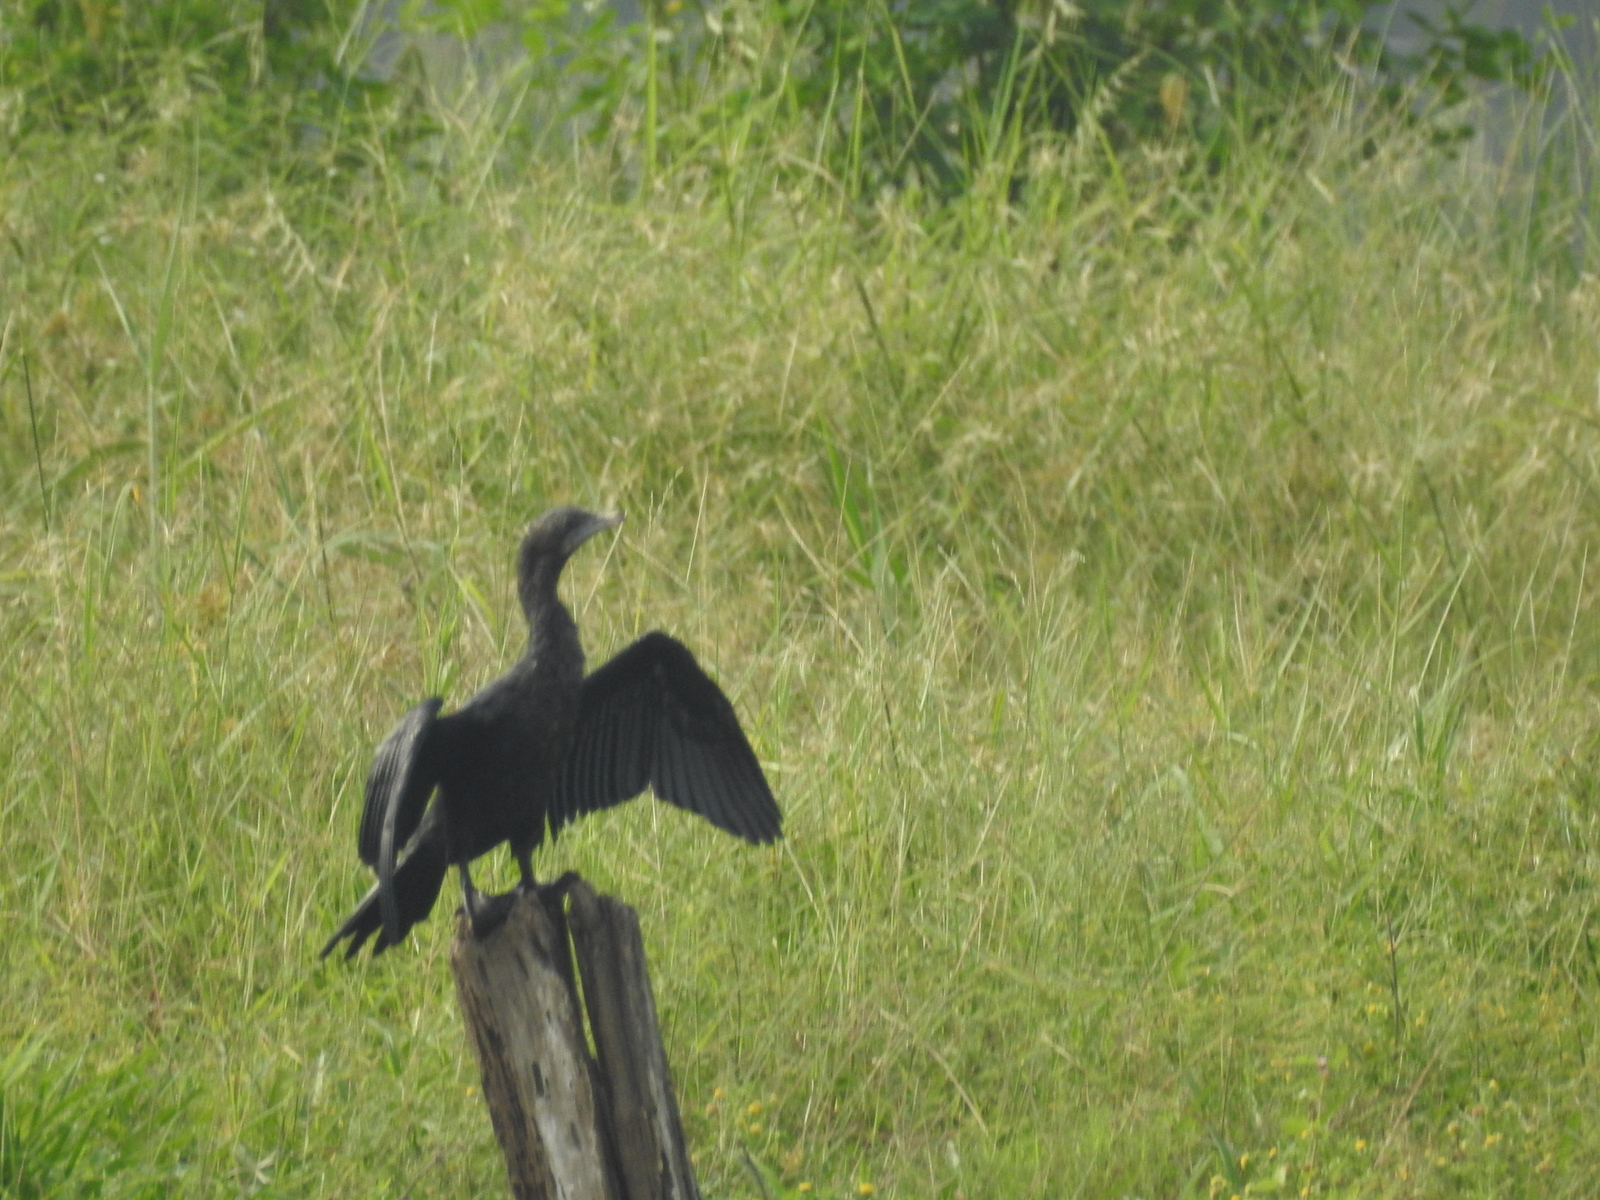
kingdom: Animalia
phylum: Chordata
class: Aves
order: Suliformes
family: Phalacrocoracidae
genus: Microcarbo
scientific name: Microcarbo niger
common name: Little cormorant
